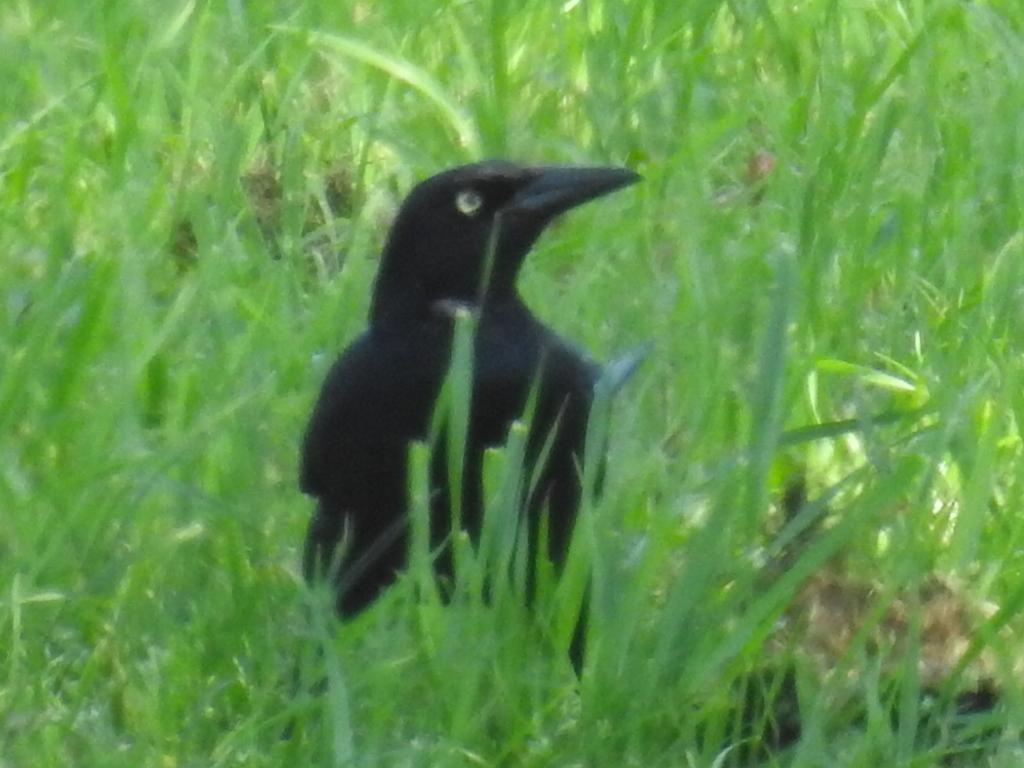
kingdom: Animalia
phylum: Chordata
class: Aves
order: Passeriformes
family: Icteridae
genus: Quiscalus
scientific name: Quiscalus mexicanus
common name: Great-tailed grackle
